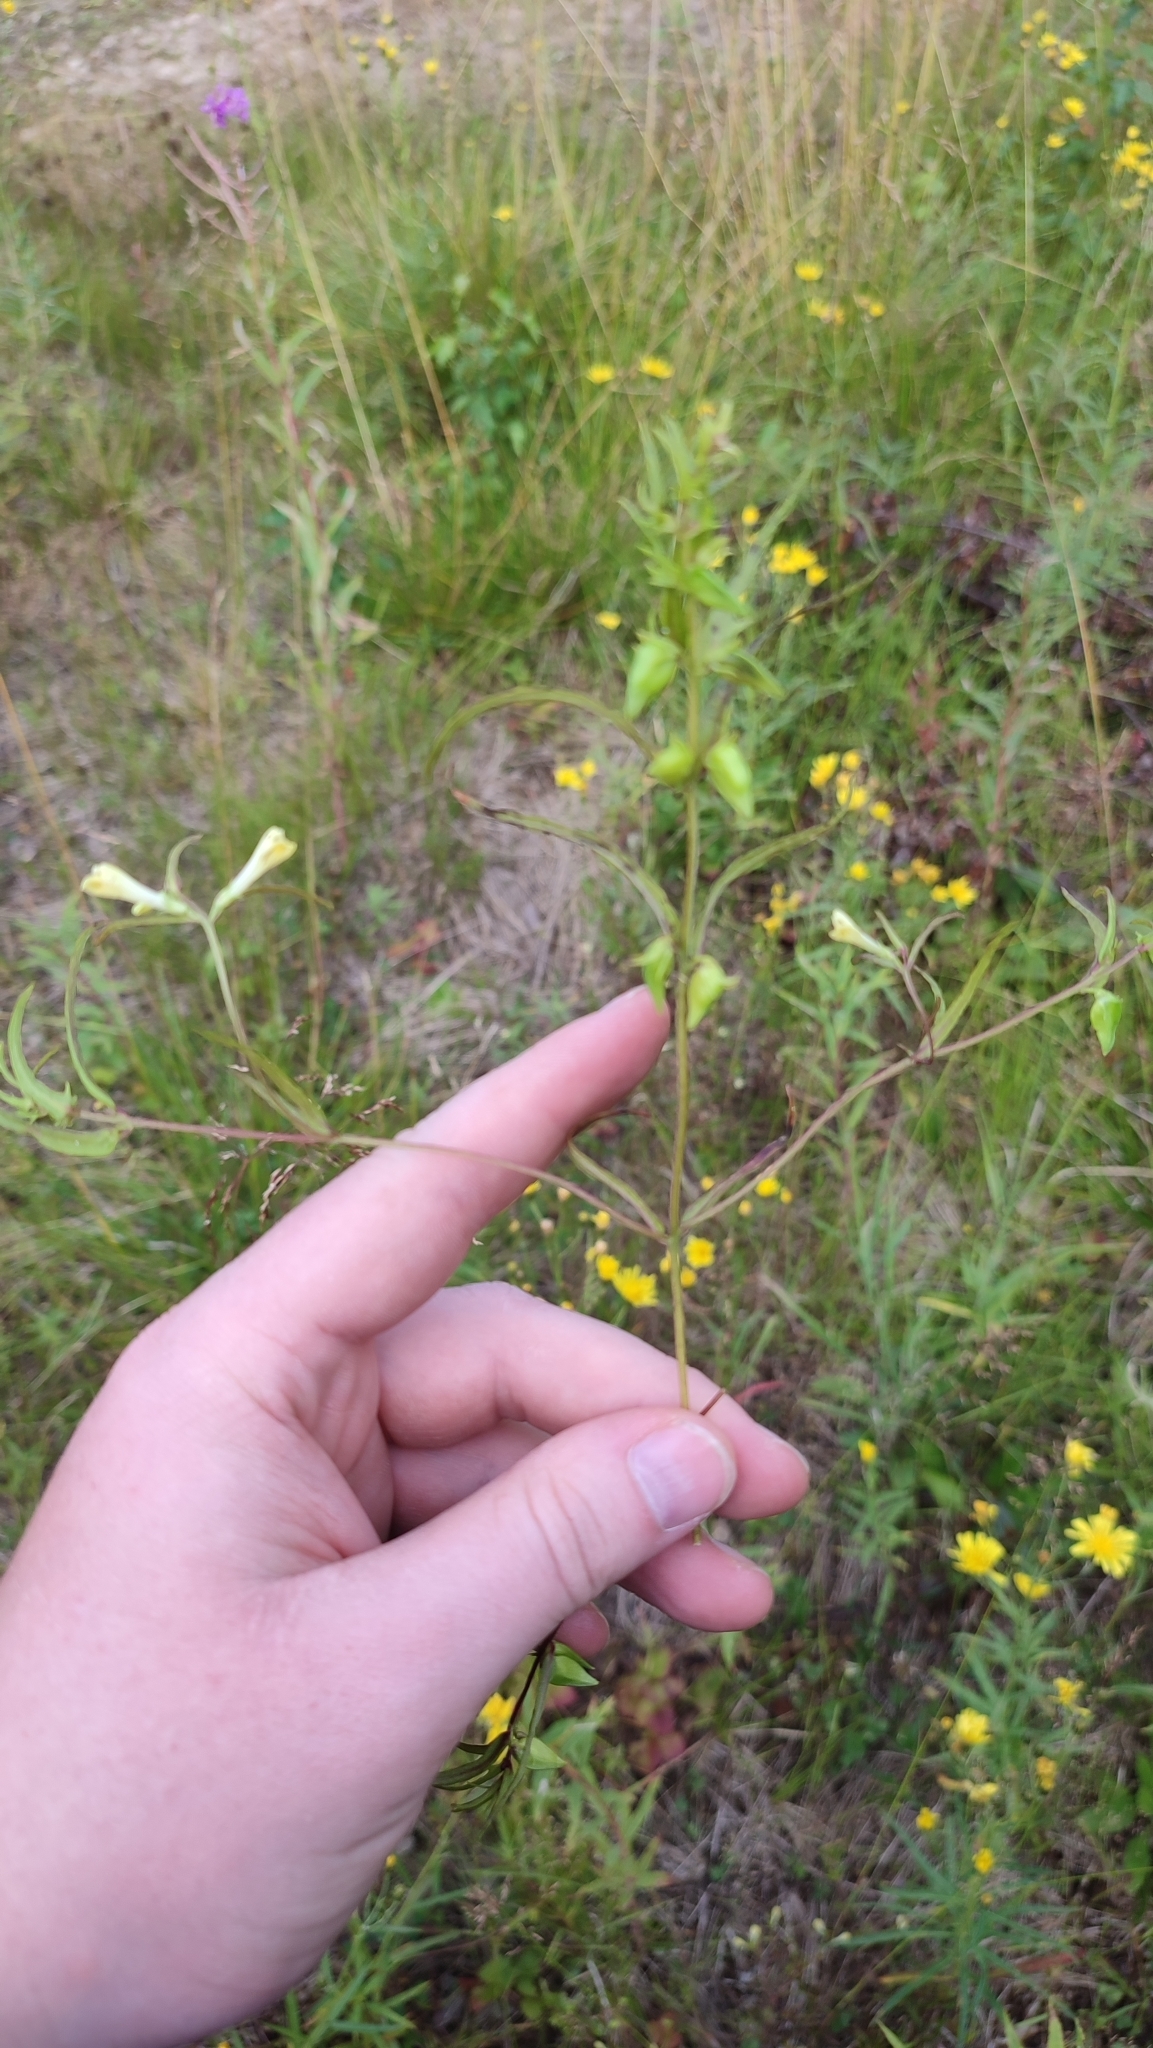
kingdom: Plantae
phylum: Tracheophyta
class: Magnoliopsida
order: Lamiales
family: Orobanchaceae
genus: Melampyrum
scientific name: Melampyrum pratense
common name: Common cow-wheat
